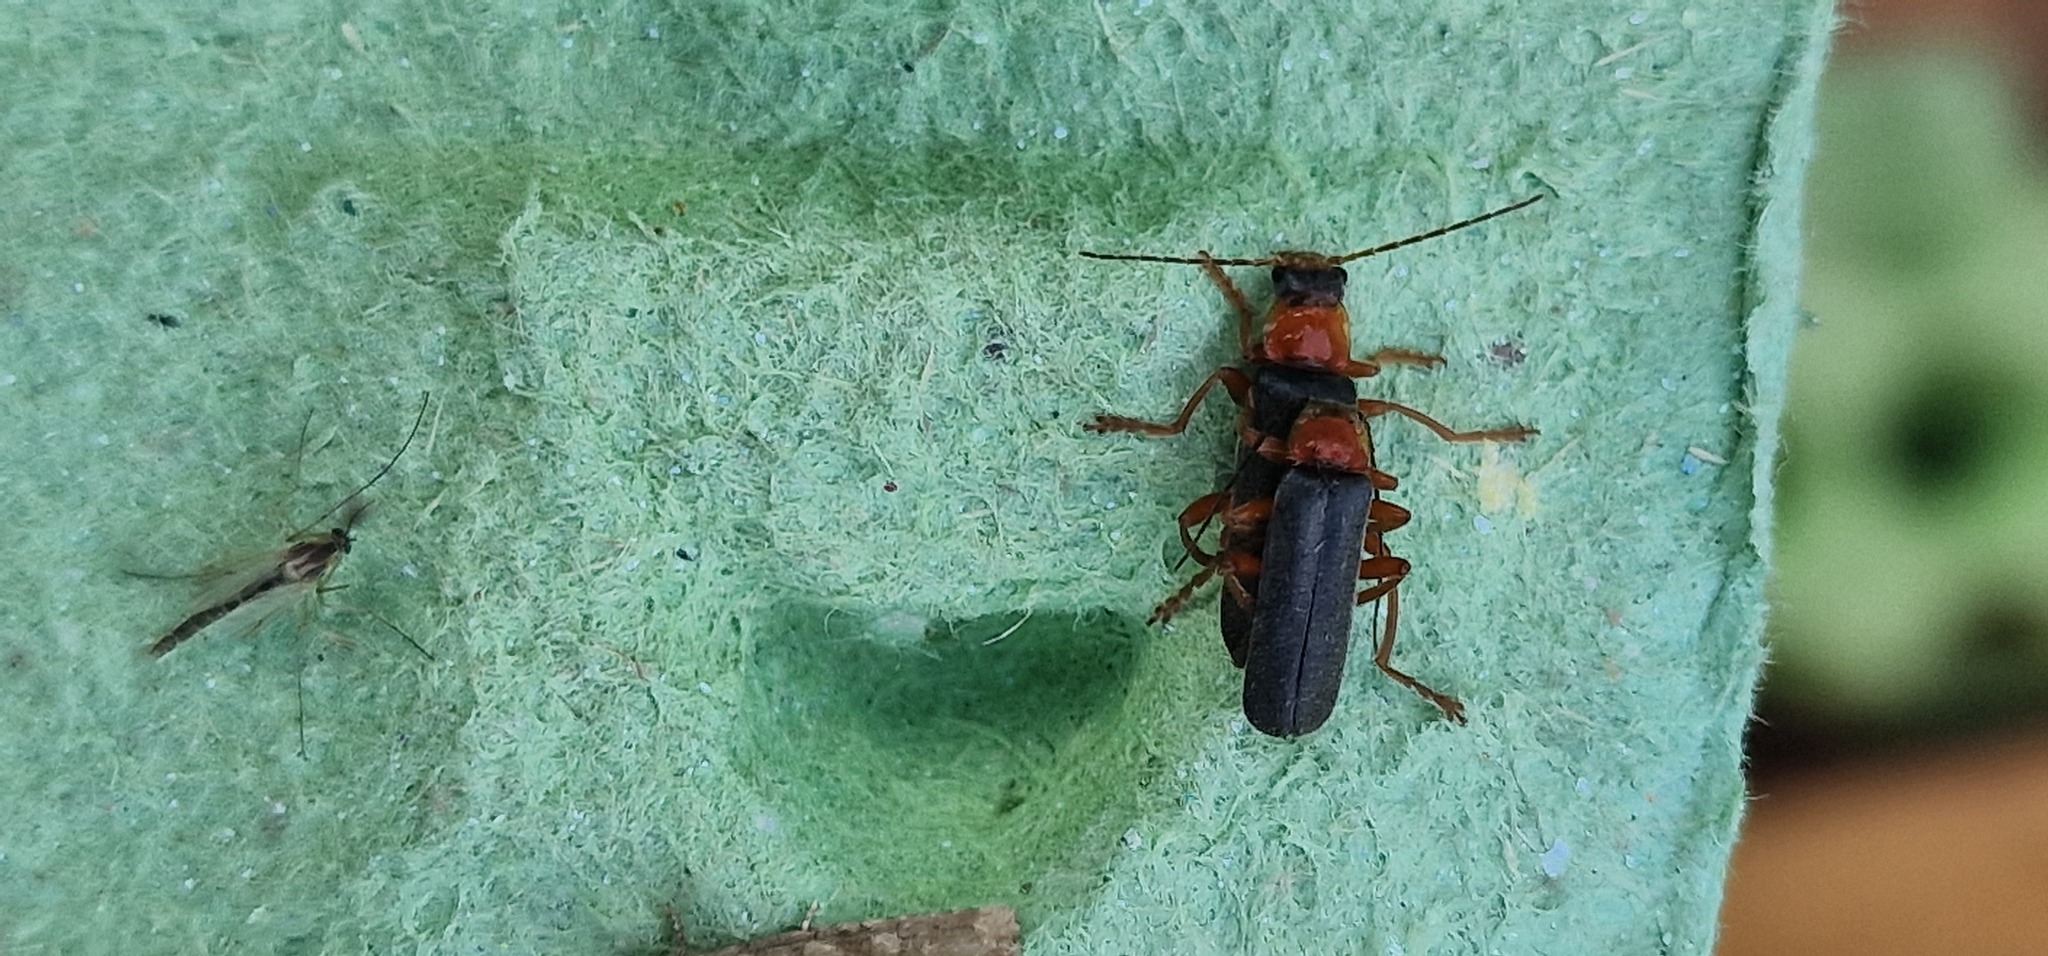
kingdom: Animalia
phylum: Arthropoda
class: Insecta
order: Coleoptera
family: Cantharidae
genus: Cantharis
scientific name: Cantharis pellucida
